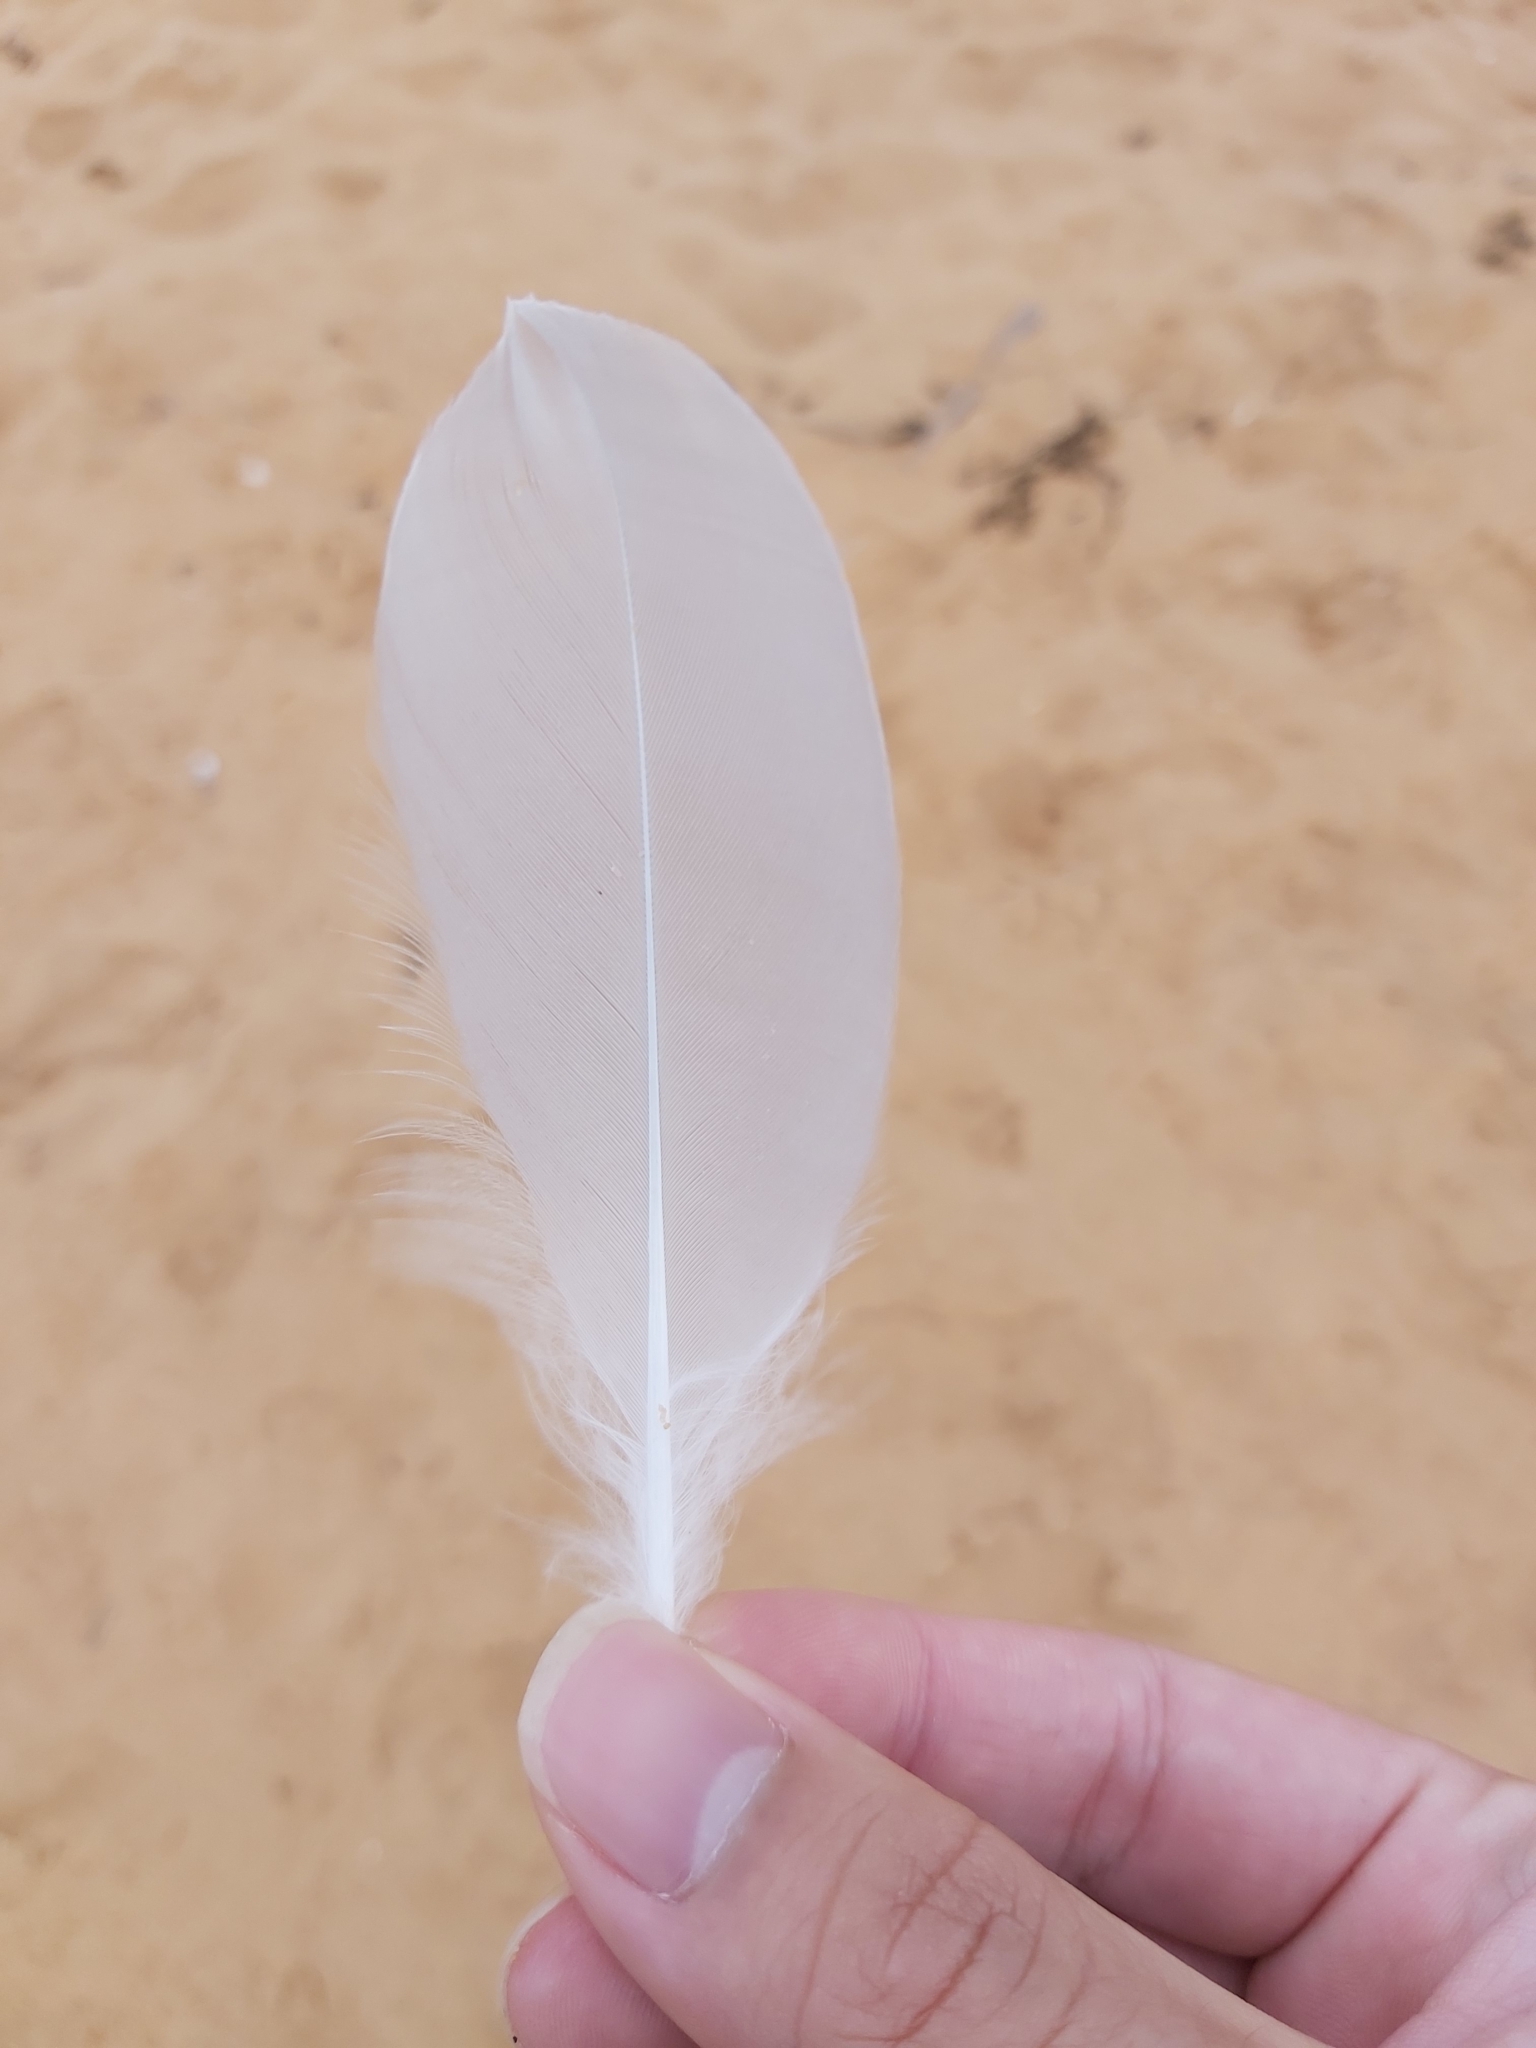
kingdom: Animalia
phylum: Chordata
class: Aves
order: Charadriiformes
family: Laridae
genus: Chroicocephalus
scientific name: Chroicocephalus novaehollandiae
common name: Silver gull
